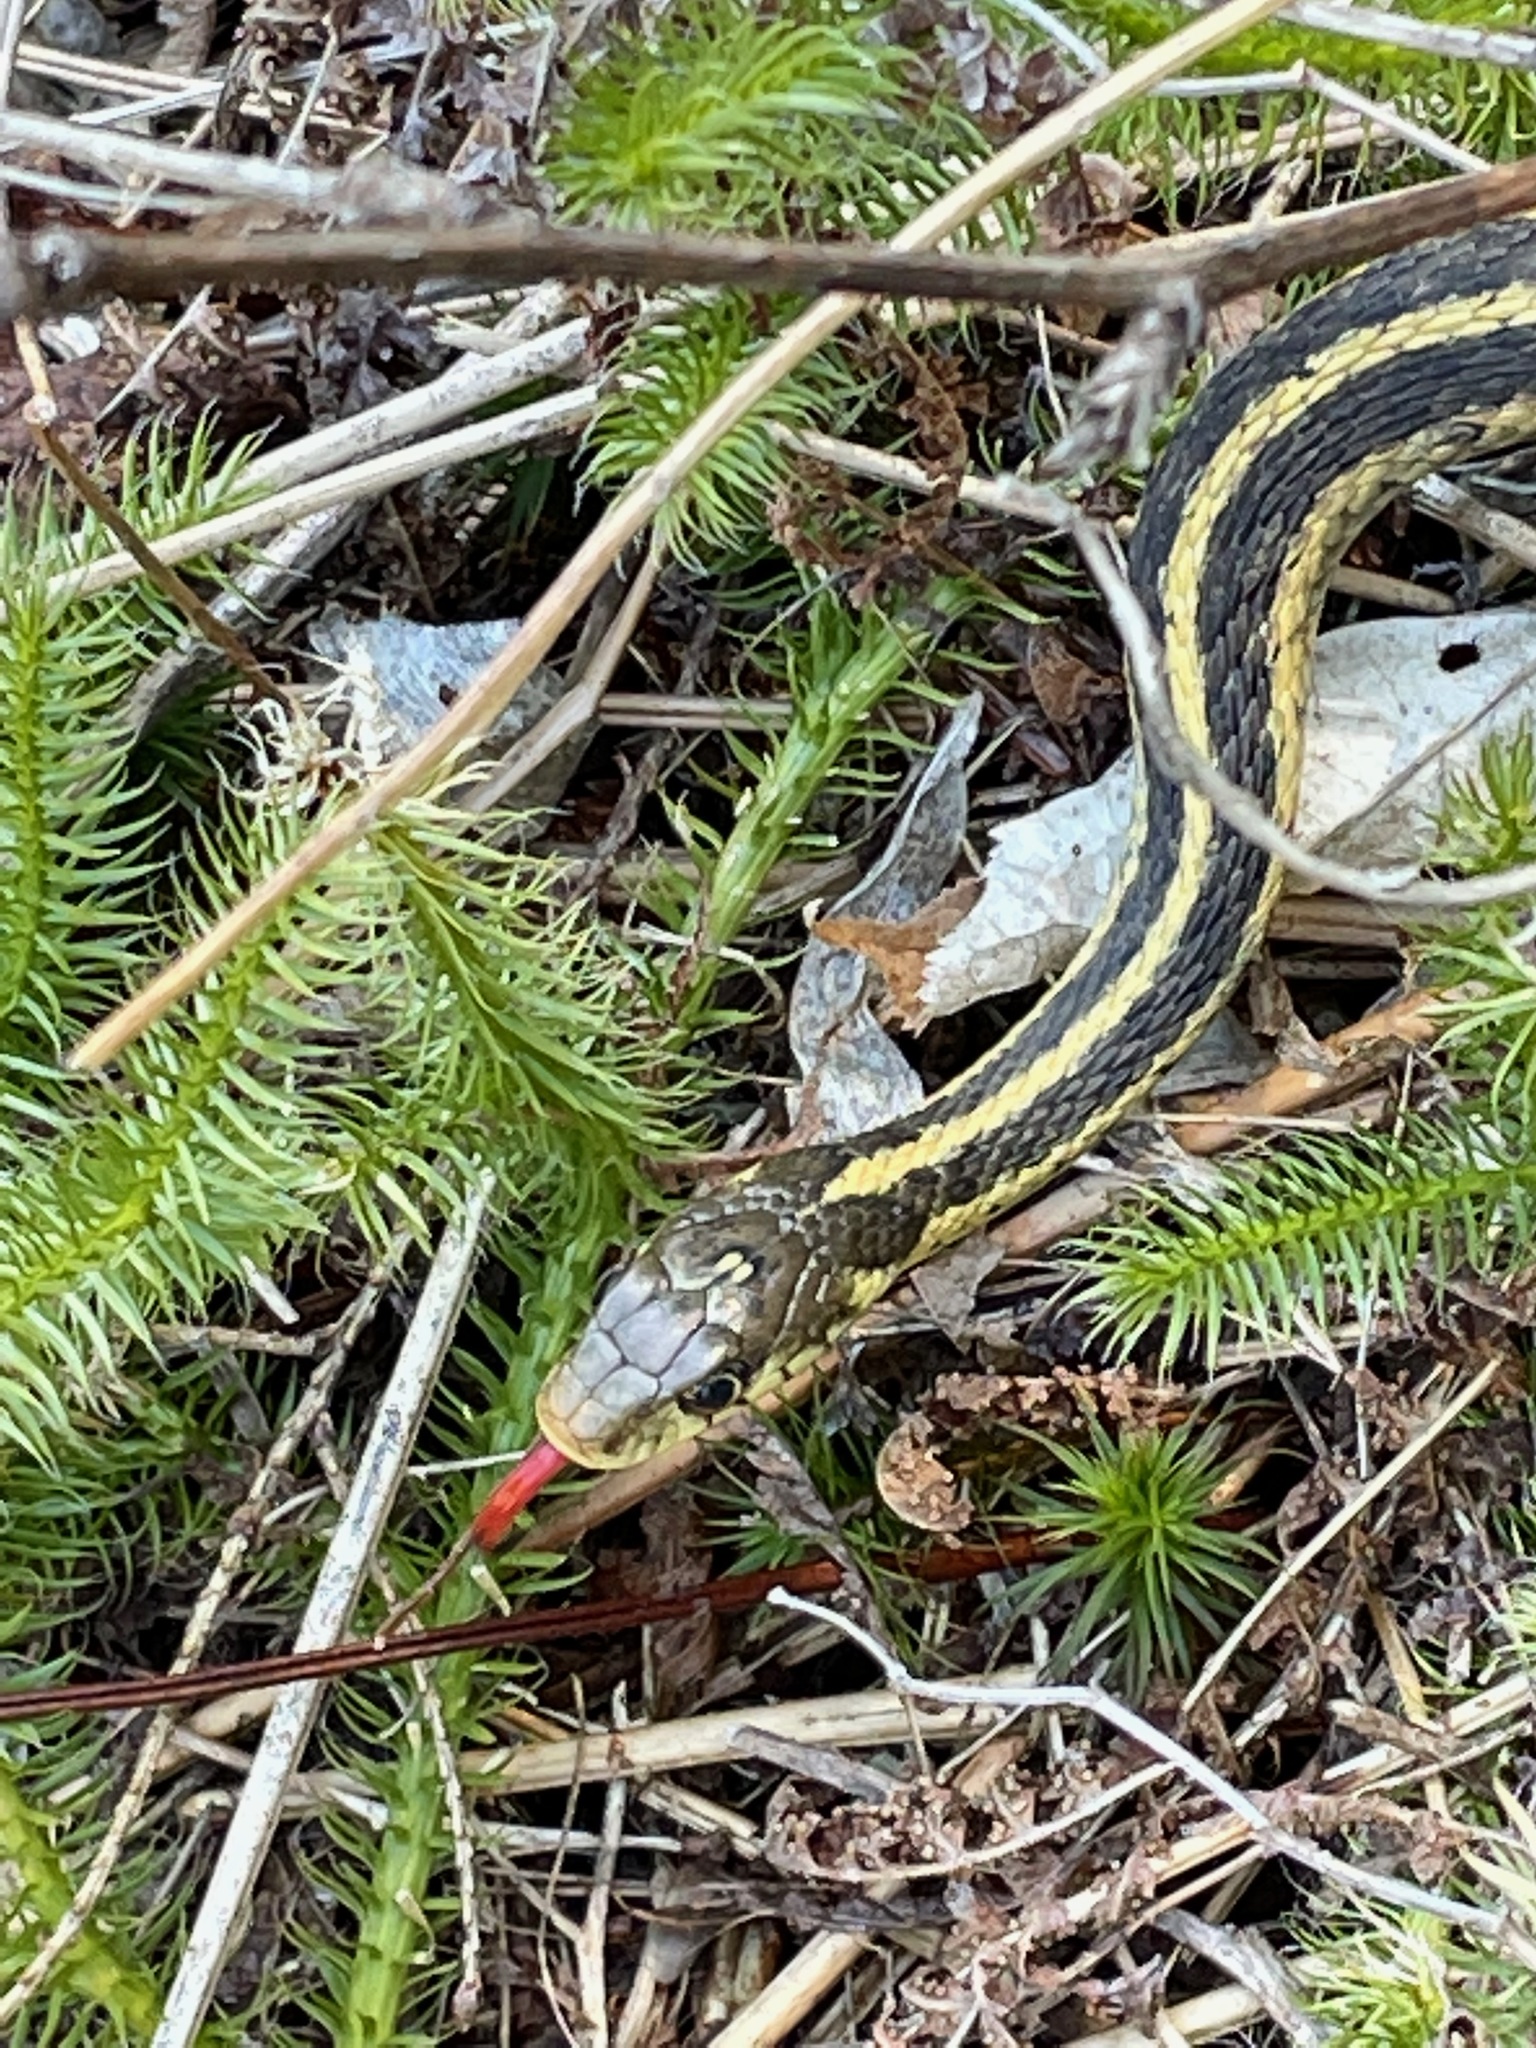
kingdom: Animalia
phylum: Chordata
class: Squamata
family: Colubridae
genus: Thamnophis
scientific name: Thamnophis sirtalis
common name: Common garter snake
